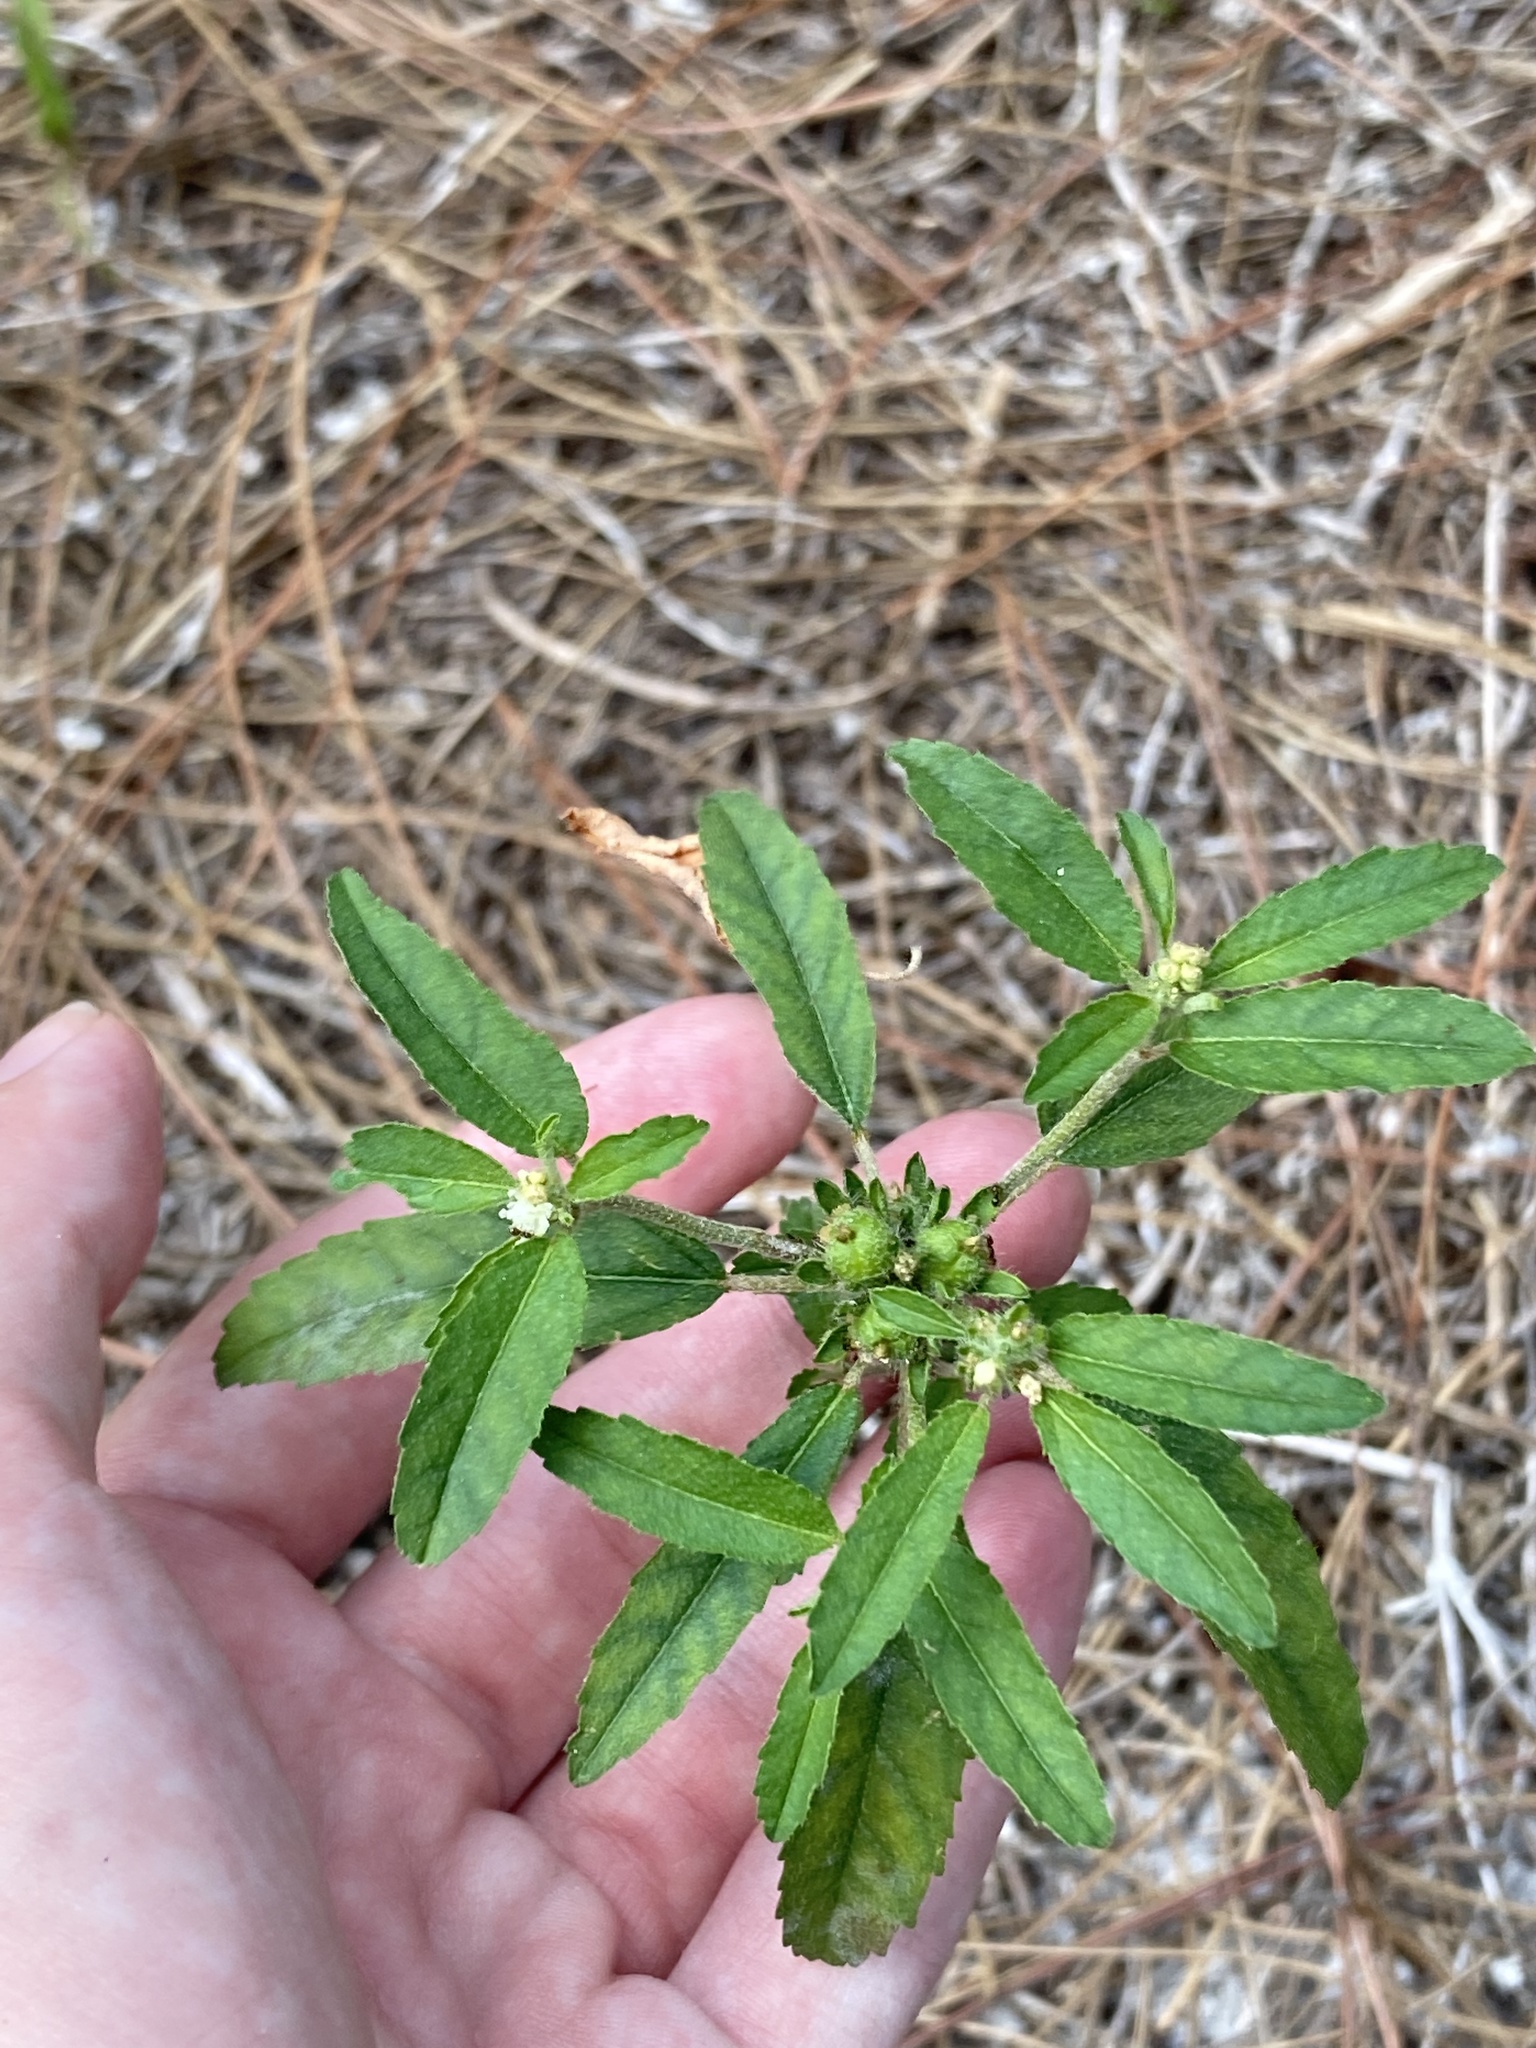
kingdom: Plantae
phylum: Tracheophyta
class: Magnoliopsida
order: Malpighiales
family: Euphorbiaceae
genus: Croton
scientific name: Croton glandulosus
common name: Tropic croton
